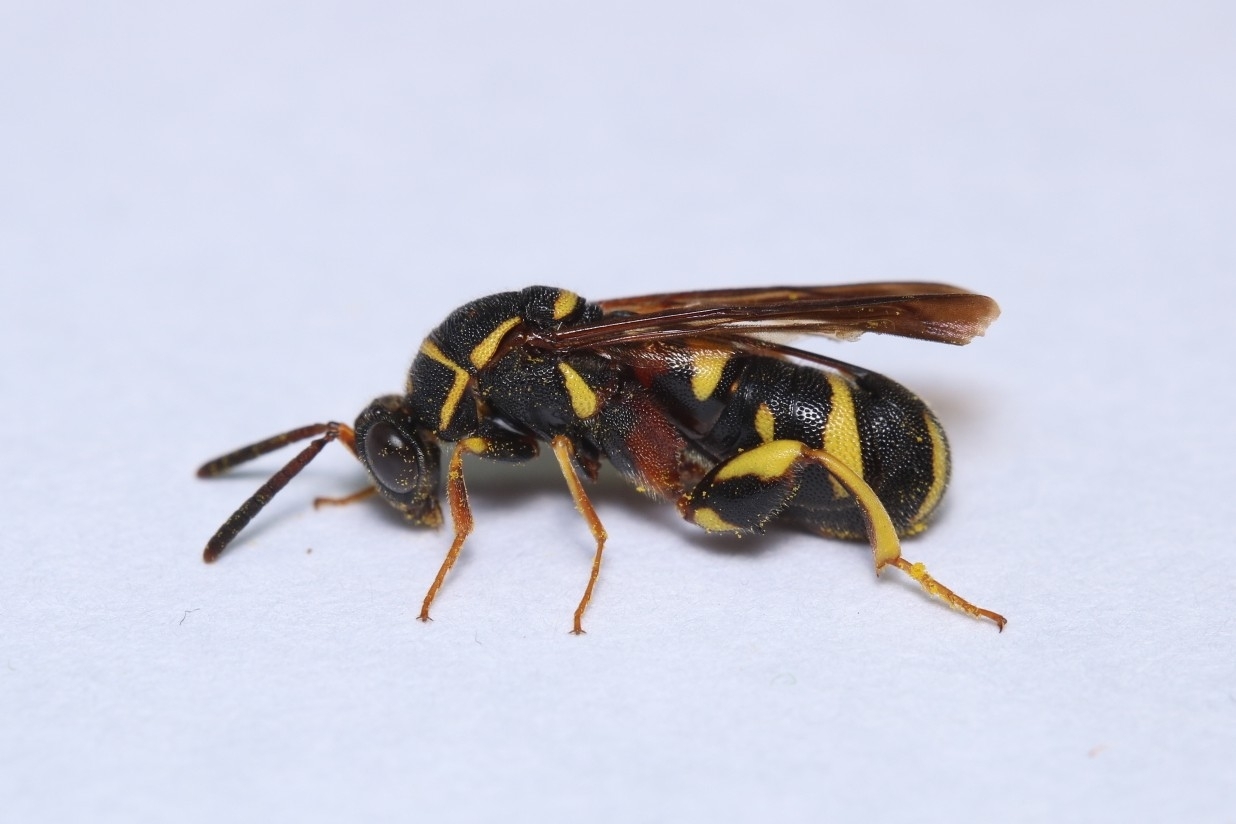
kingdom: Animalia
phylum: Arthropoda
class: Insecta
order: Hymenoptera
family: Leucospidae
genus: Leucospis
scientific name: Leucospis affinis
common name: Wasp
